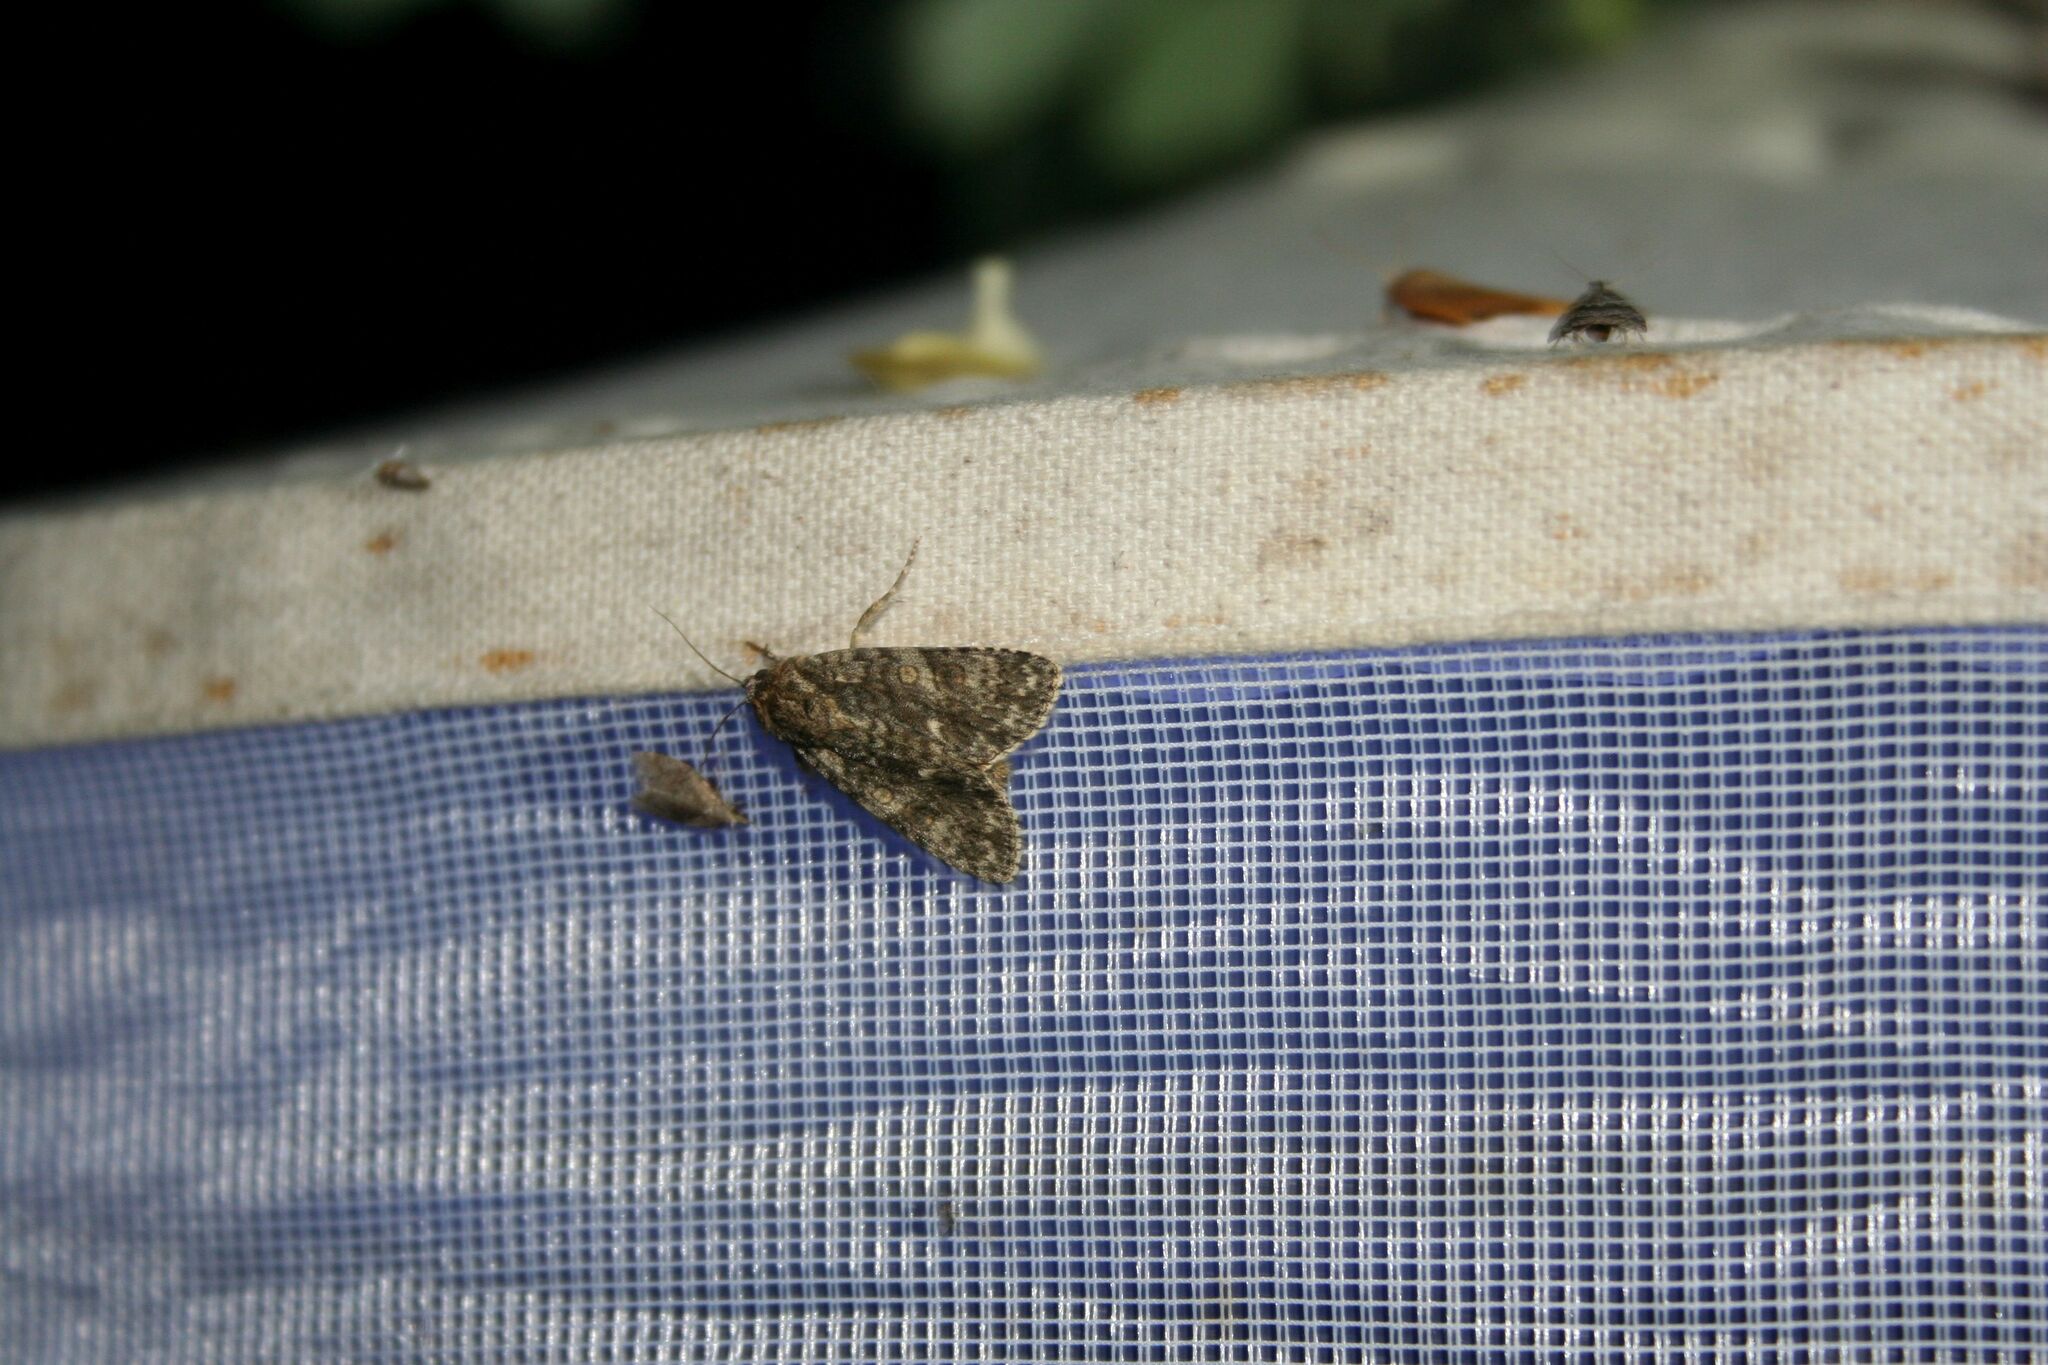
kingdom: Animalia
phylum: Arthropoda
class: Insecta
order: Lepidoptera
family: Noctuidae
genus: Acronicta
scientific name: Acronicta rumicis
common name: Knot grass
